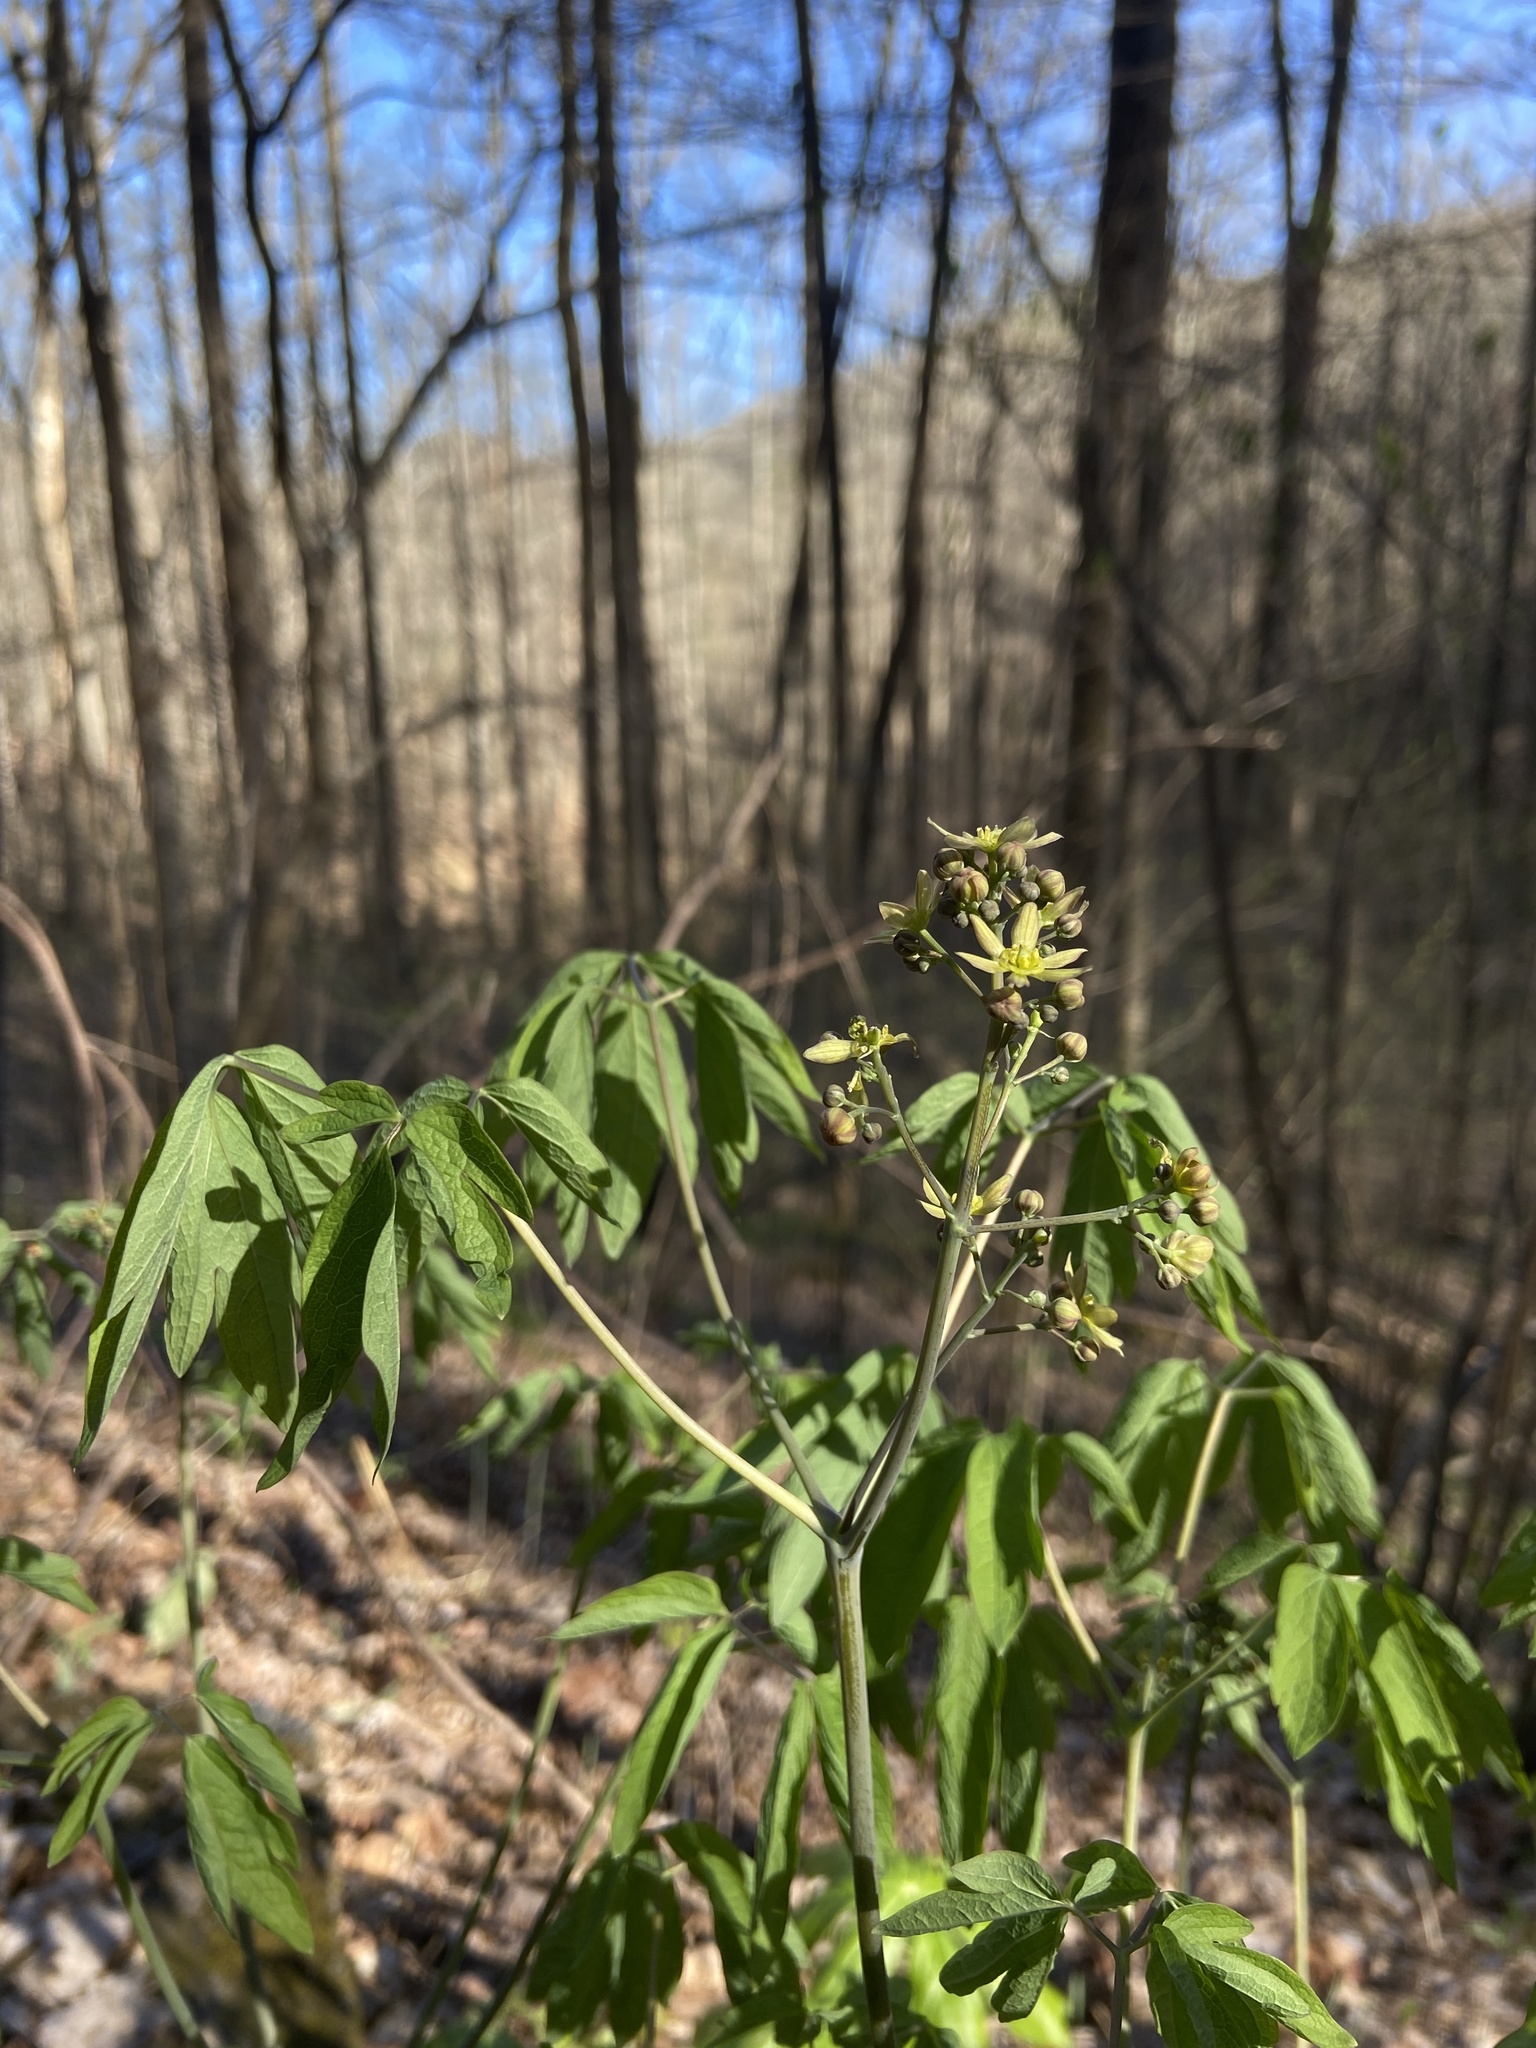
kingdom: Plantae
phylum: Tracheophyta
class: Magnoliopsida
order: Ranunculales
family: Berberidaceae
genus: Caulophyllum
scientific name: Caulophyllum thalictroides
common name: Blue cohosh
